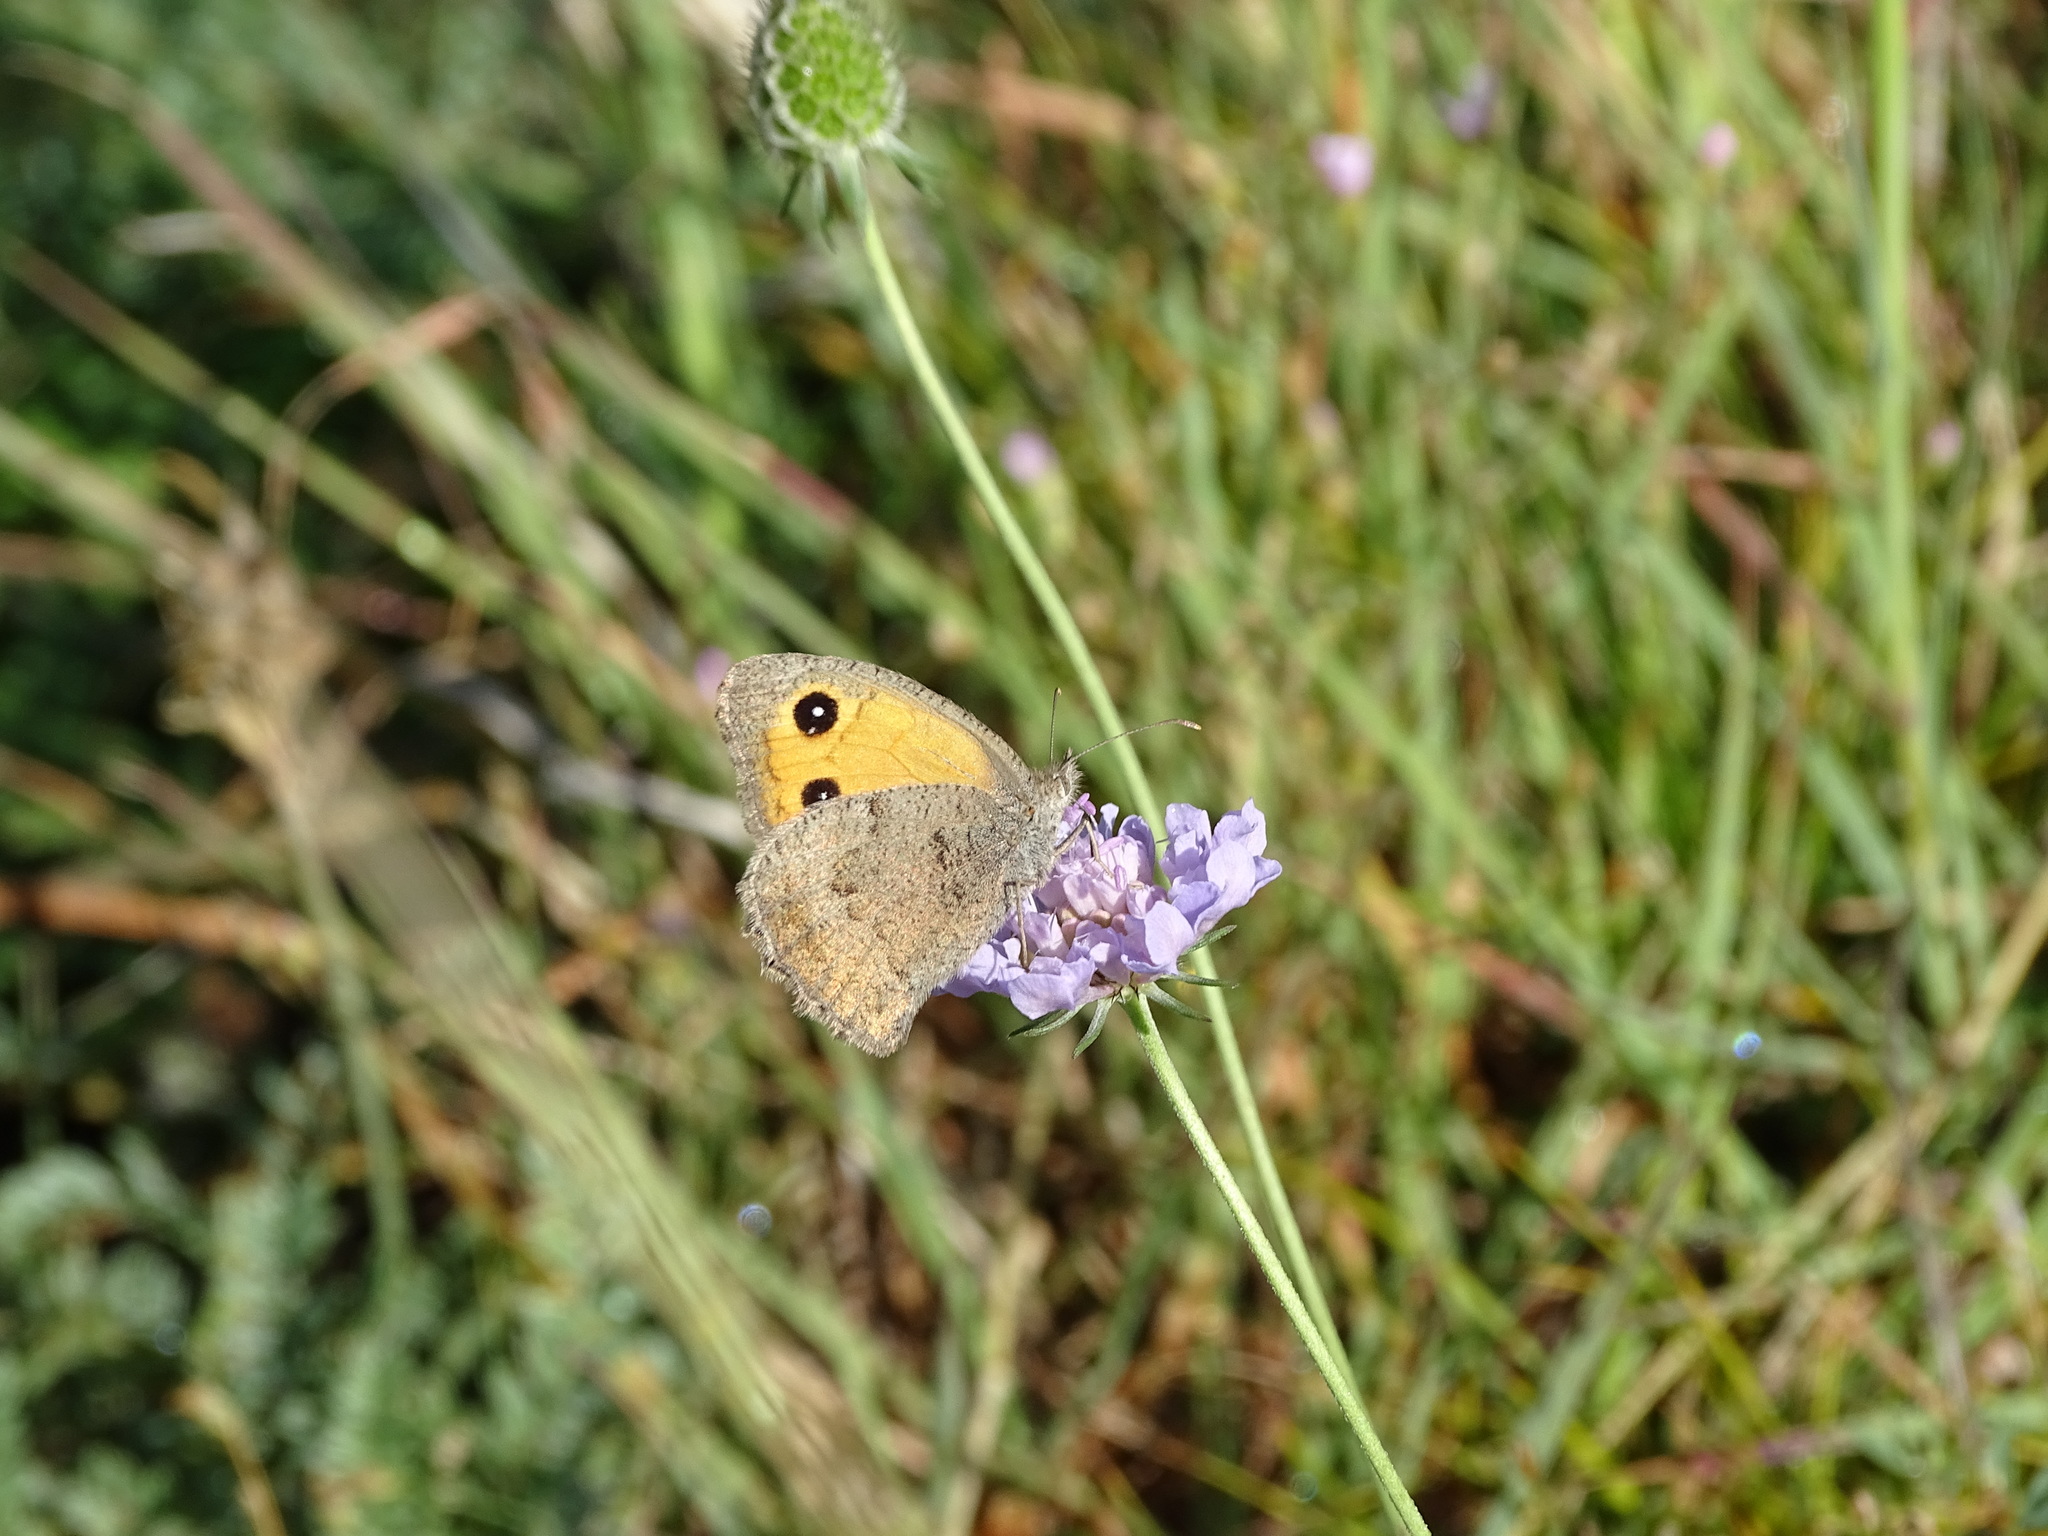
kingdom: Animalia
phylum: Arthropoda
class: Insecta
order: Lepidoptera
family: Nymphalidae
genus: Hyponephele
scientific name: Hyponephele lycaon
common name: Dusky meadow brown
